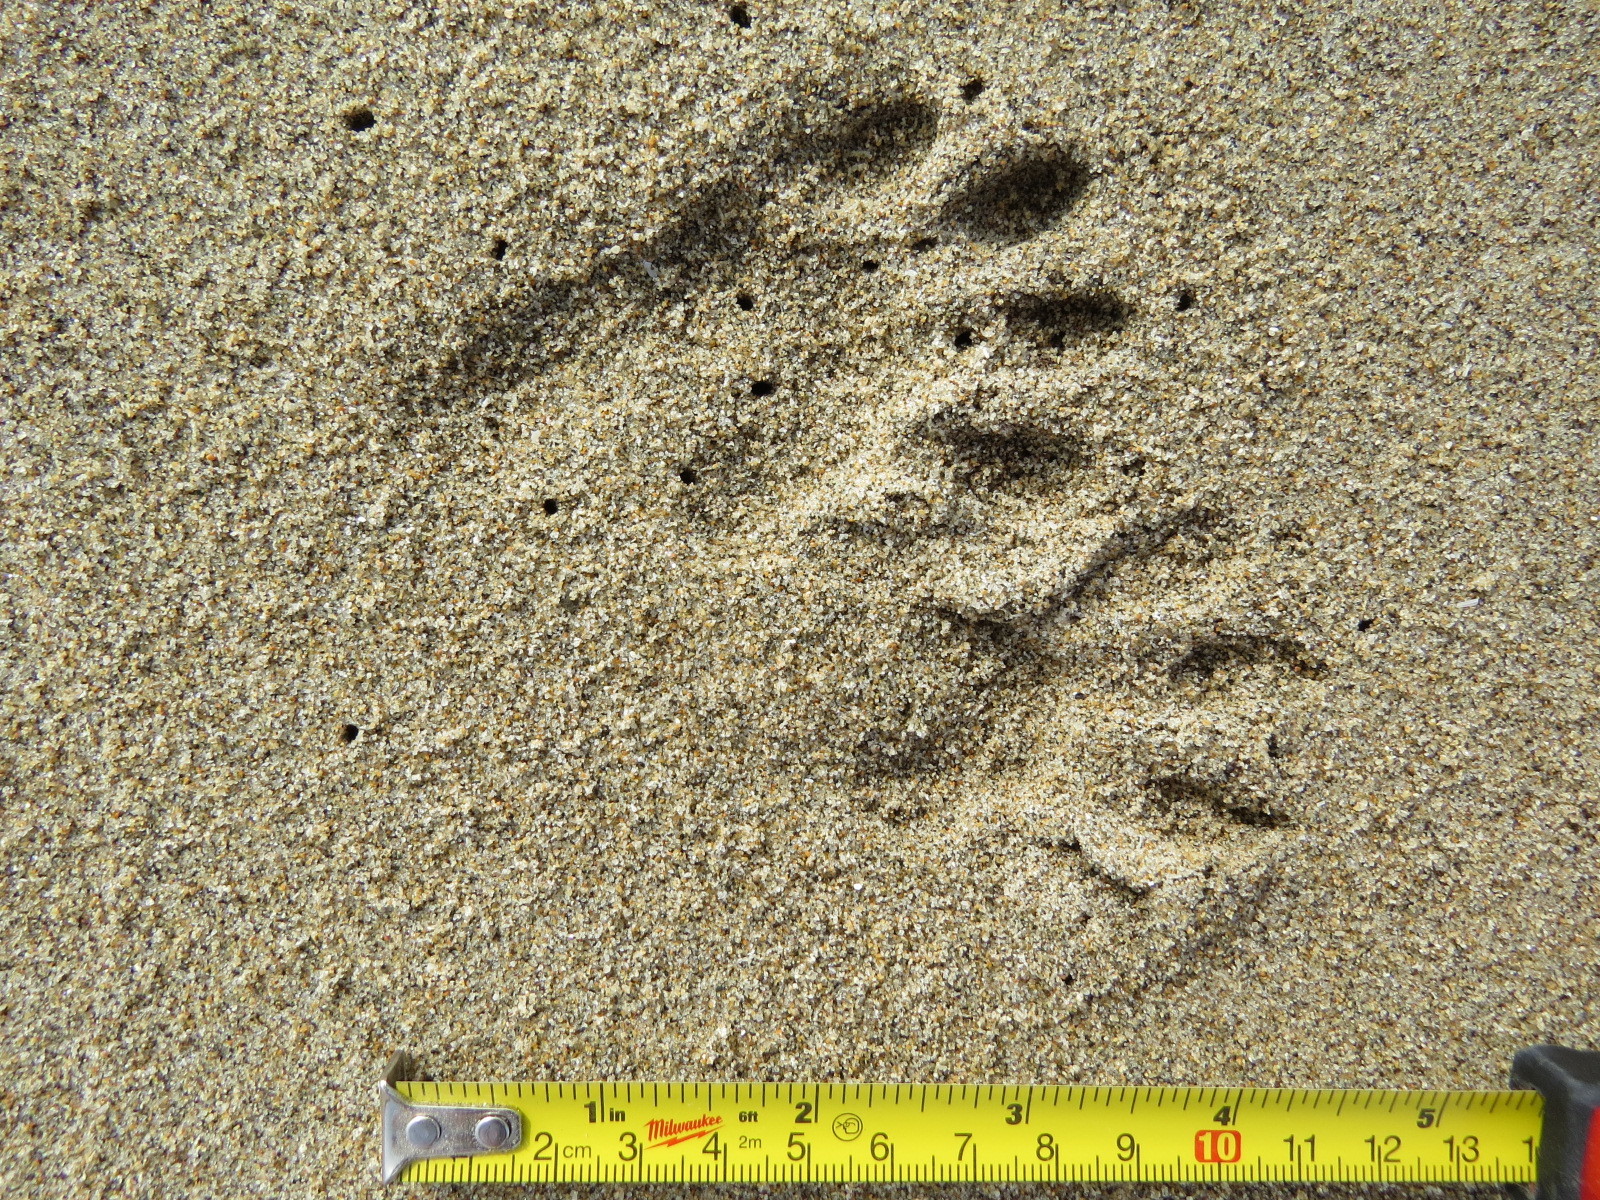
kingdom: Animalia
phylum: Chordata
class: Mammalia
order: Carnivora
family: Procyonidae
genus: Procyon
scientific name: Procyon lotor
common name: Raccoon
